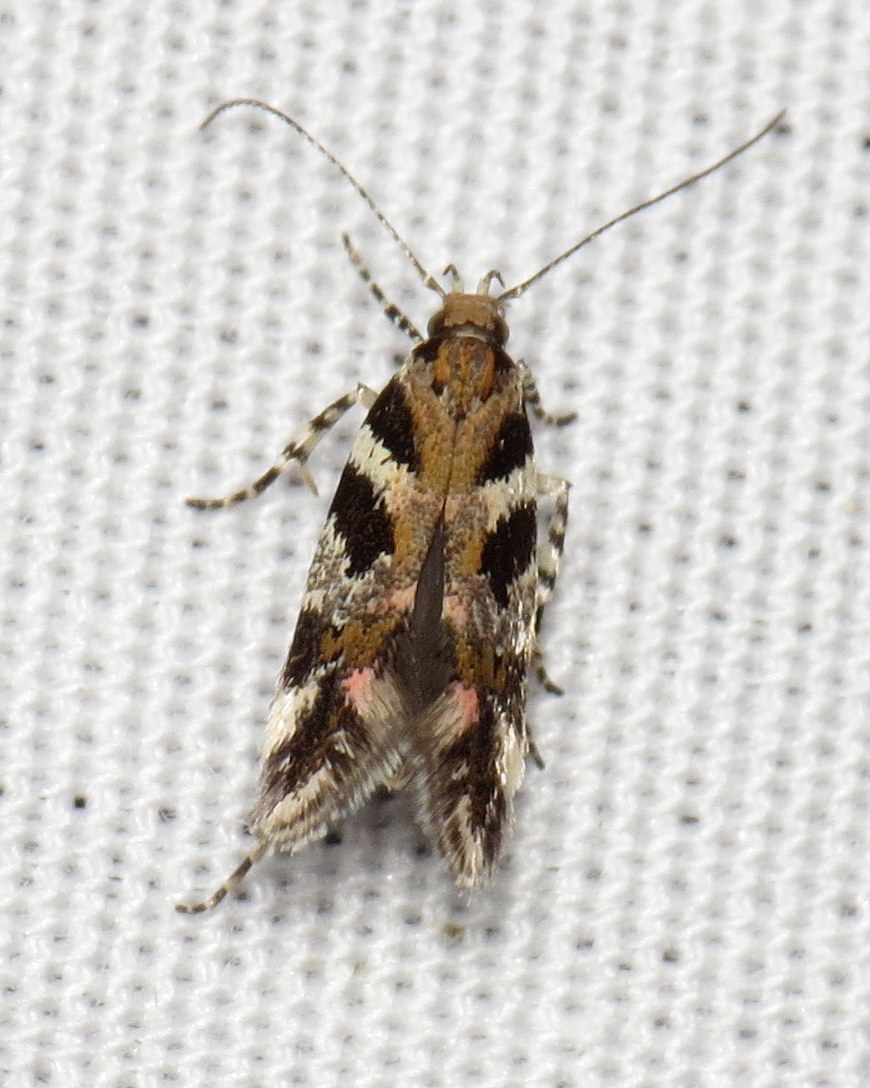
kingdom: Animalia
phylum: Arthropoda
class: Insecta
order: Lepidoptera
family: Gelechiidae
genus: Aristotelia
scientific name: Aristotelia roseosuffusella
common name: Pink-washed aristotelia moth
